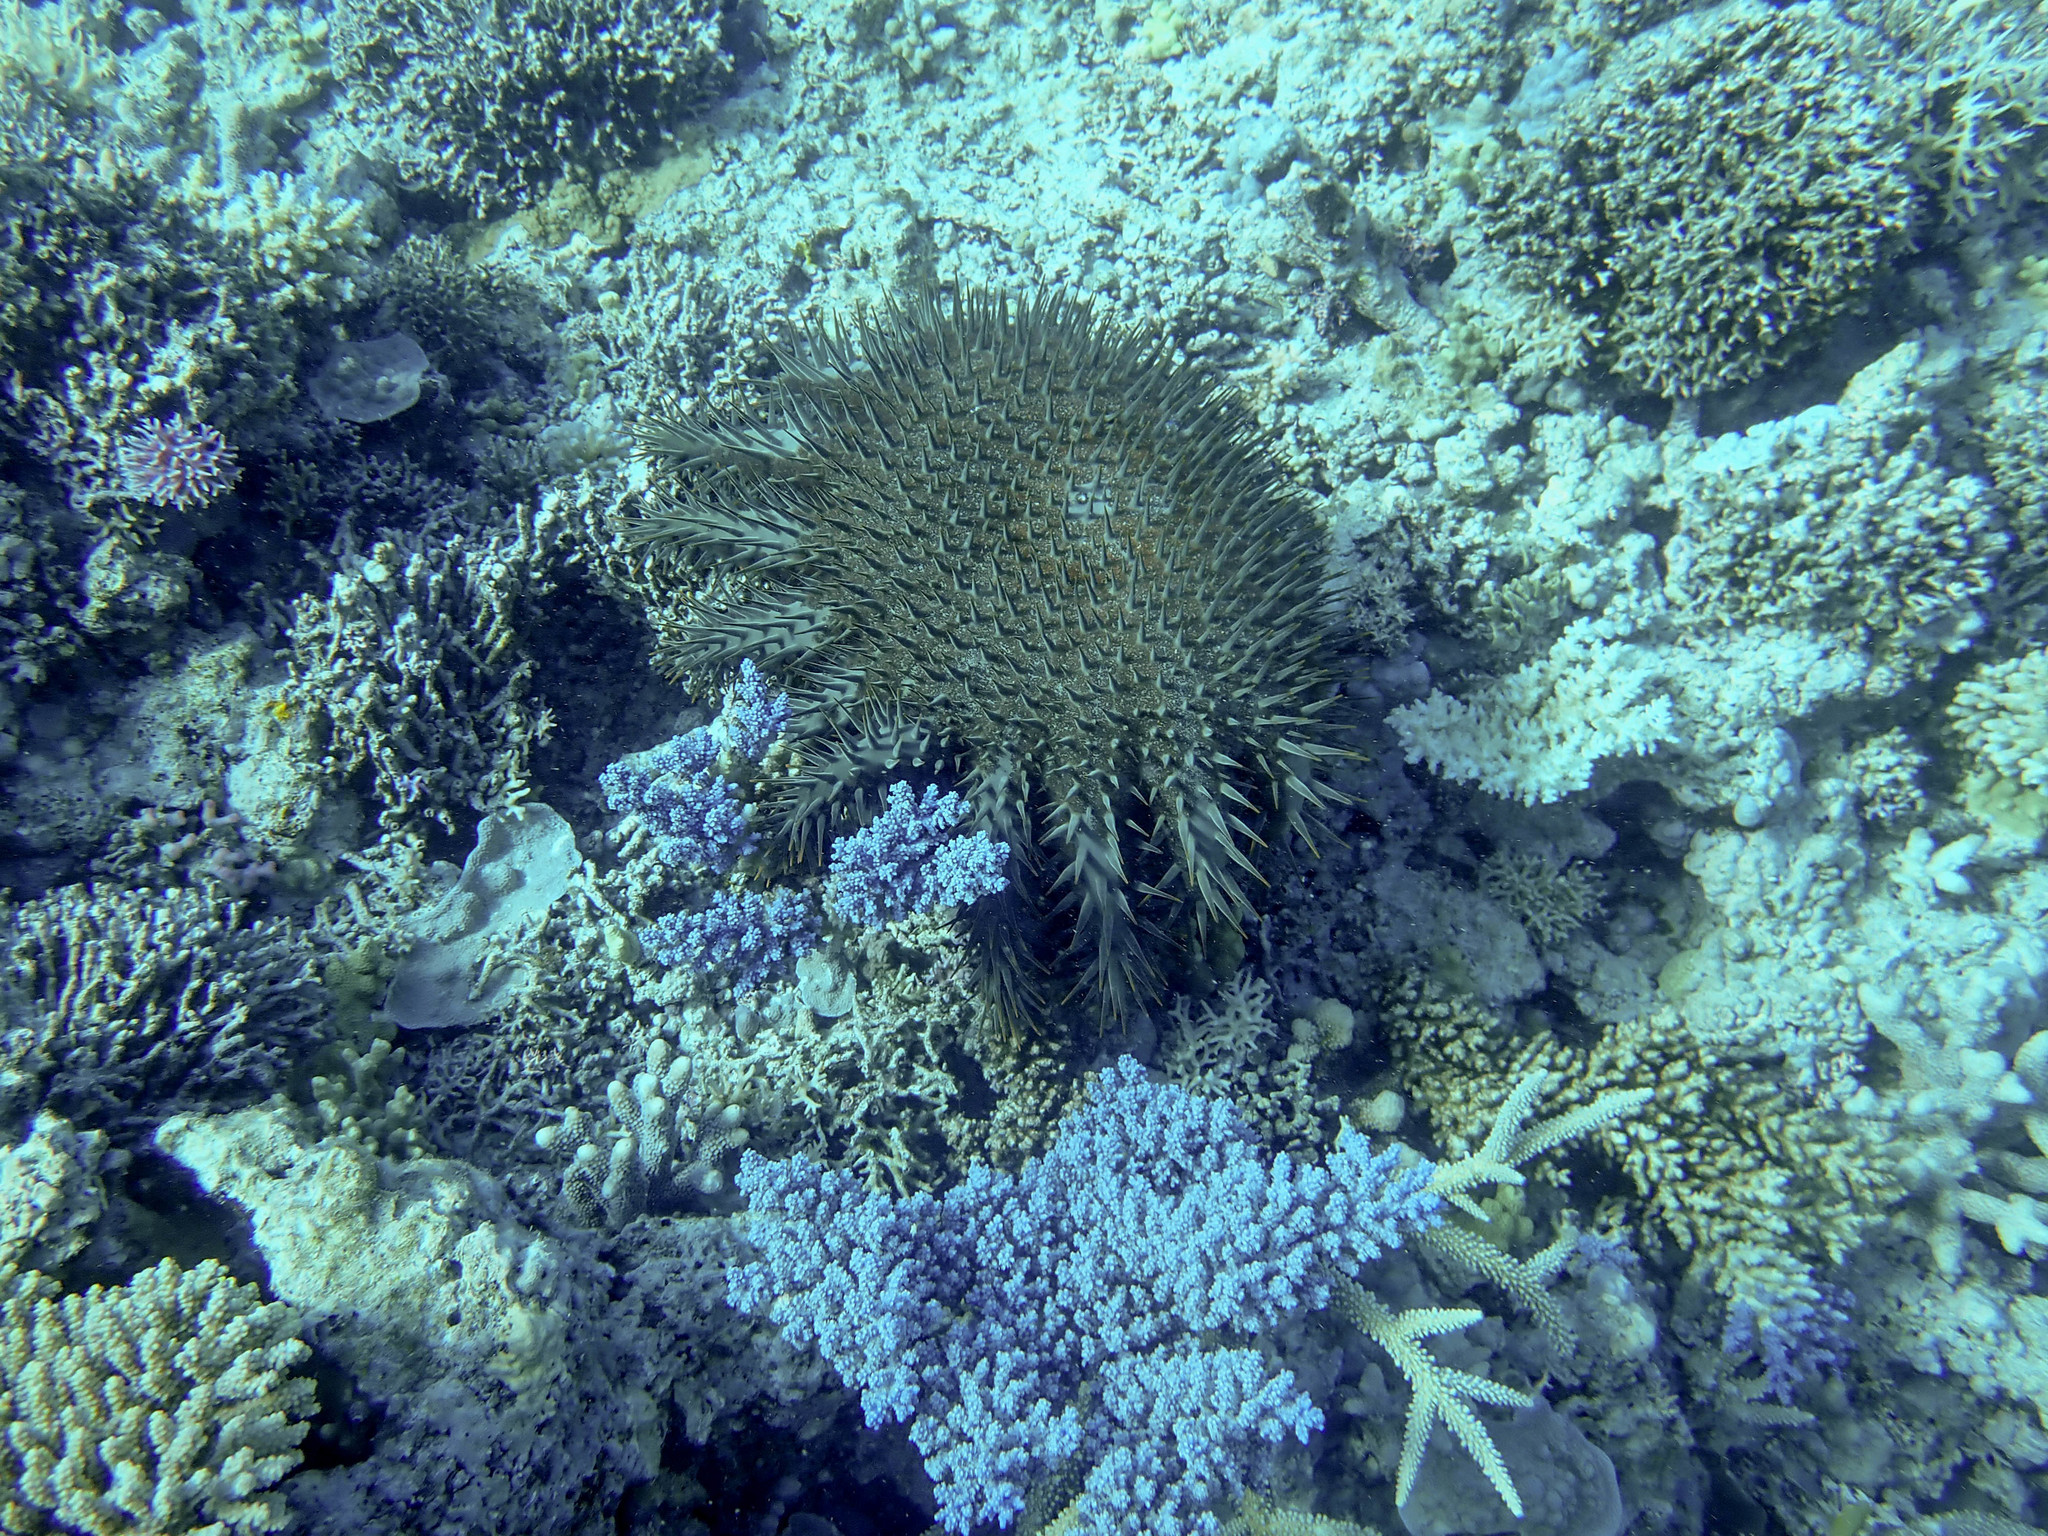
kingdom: Animalia
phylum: Echinodermata
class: Asteroidea
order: Valvatida
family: Acanthasteridae
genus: Acanthaster
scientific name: Acanthaster planci
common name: Crown-of-thorns
